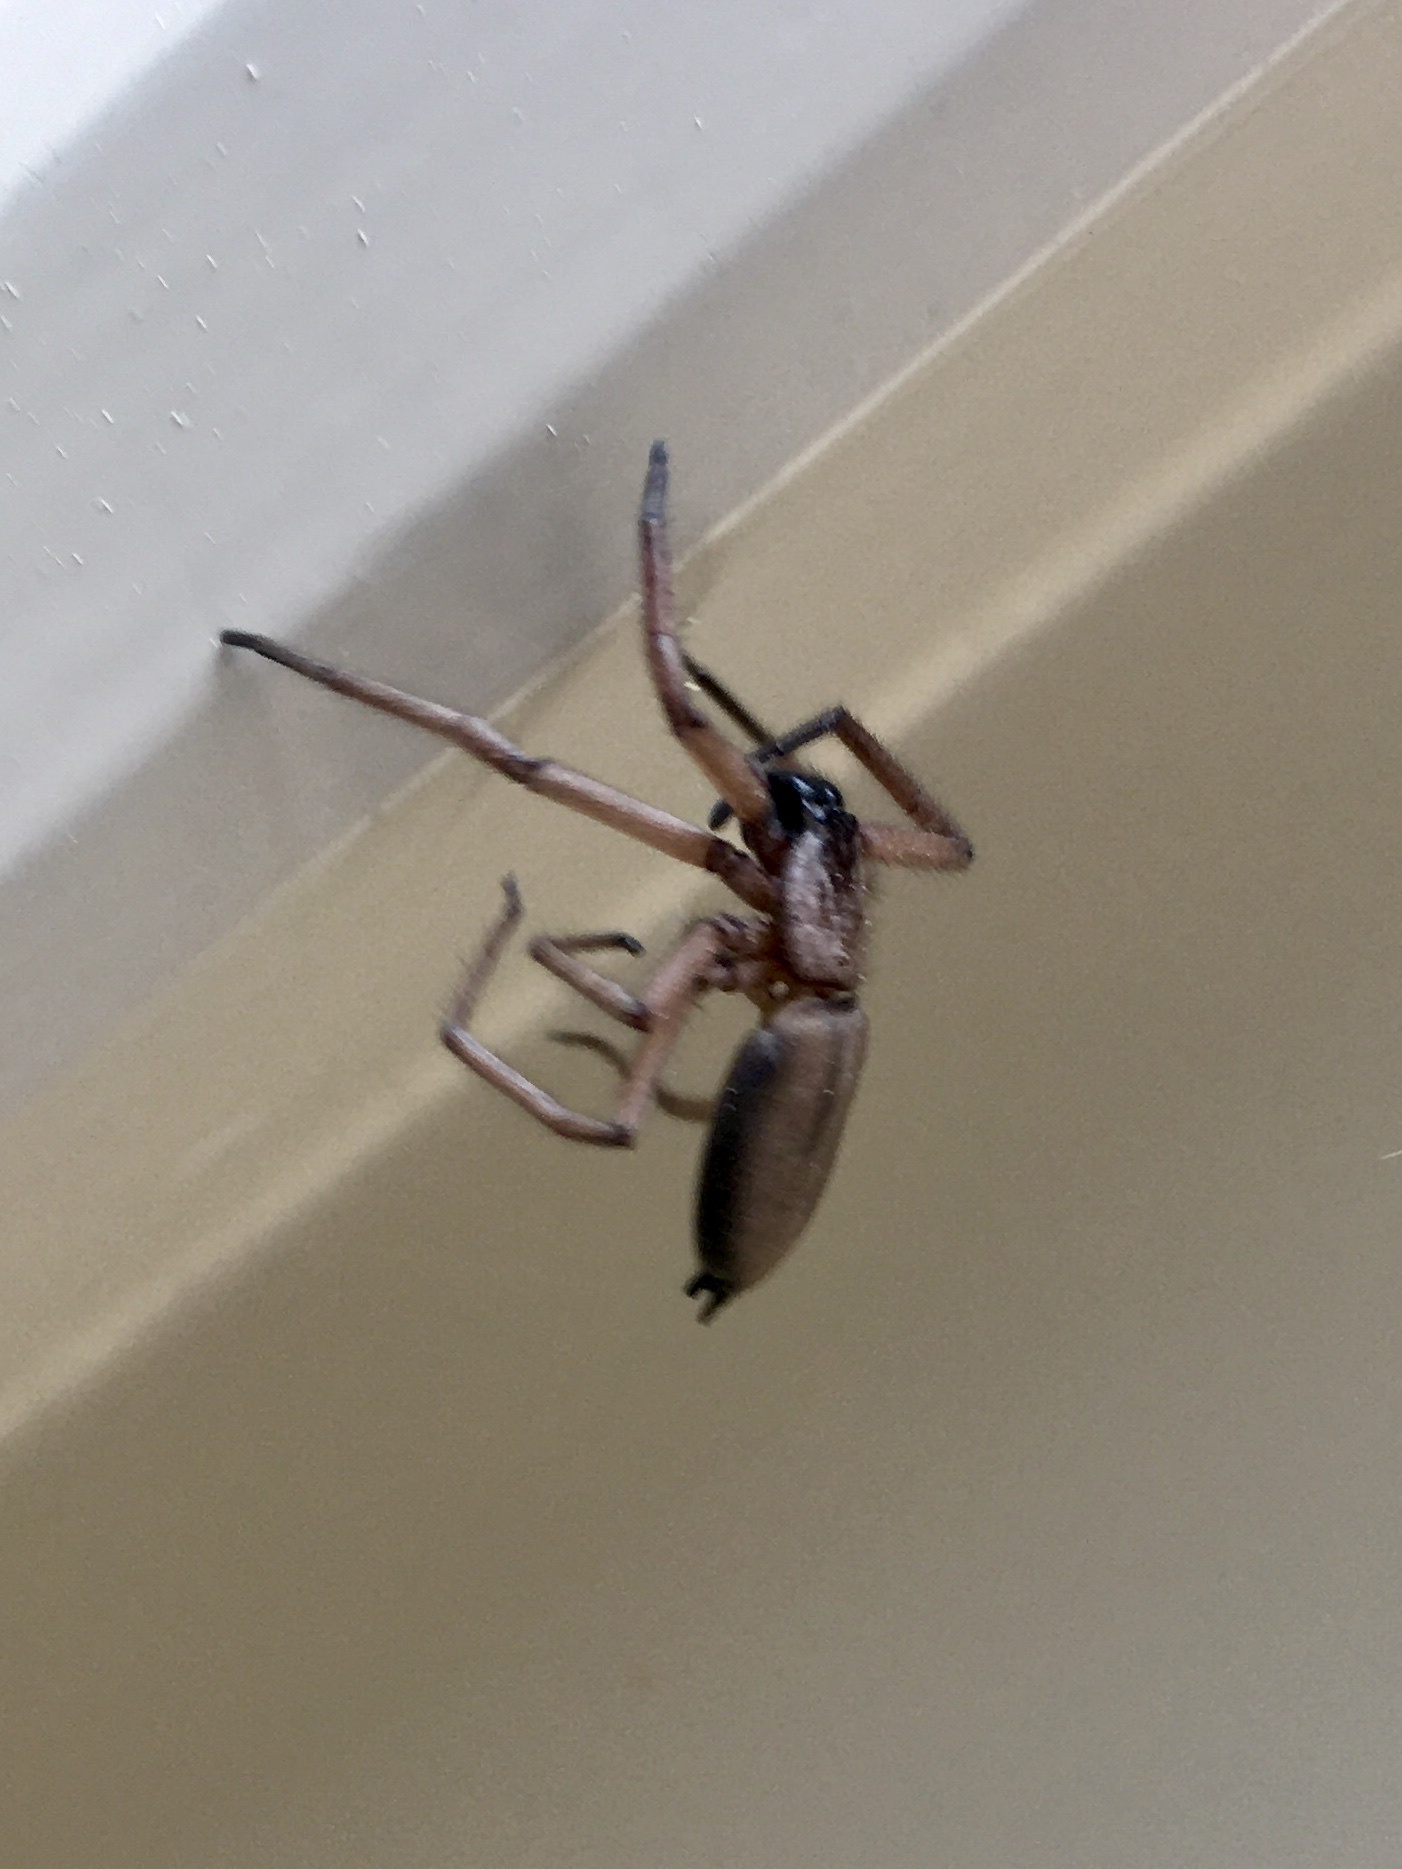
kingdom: Animalia
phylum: Arthropoda
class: Arachnida
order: Araneae
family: Trochanteriidae
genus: Hemicloea
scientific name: Hemicloea rogenhoferi
